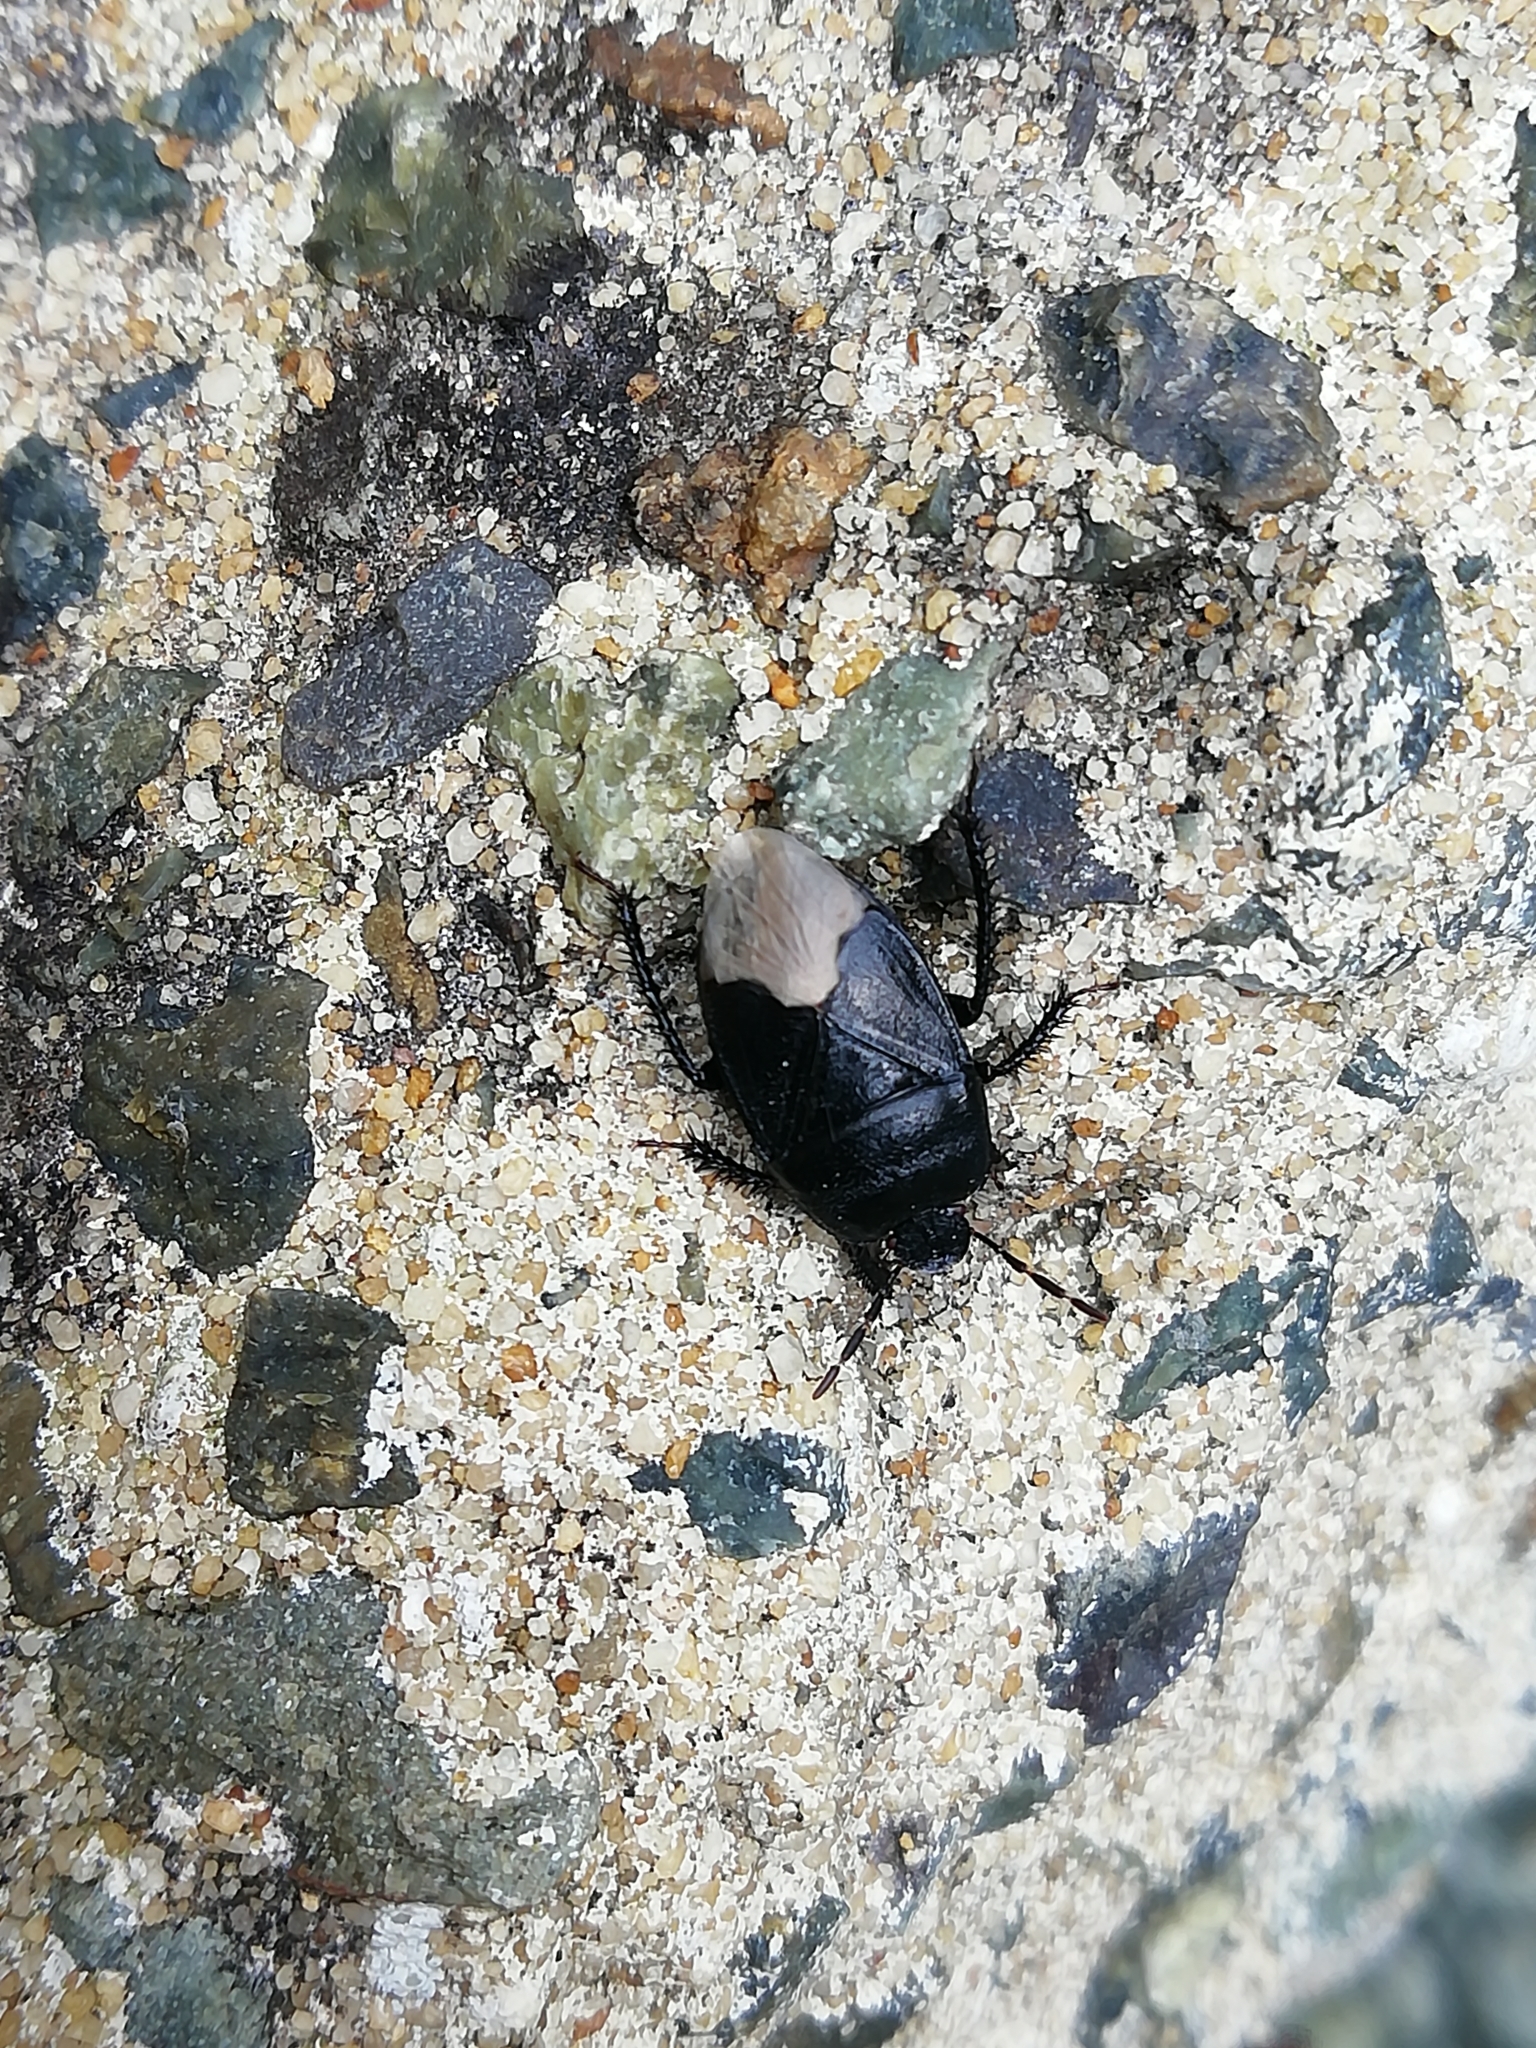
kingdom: Animalia
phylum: Arthropoda
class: Insecta
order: Hemiptera
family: Cydnidae
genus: Cydnus
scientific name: Cydnus aterrimus
